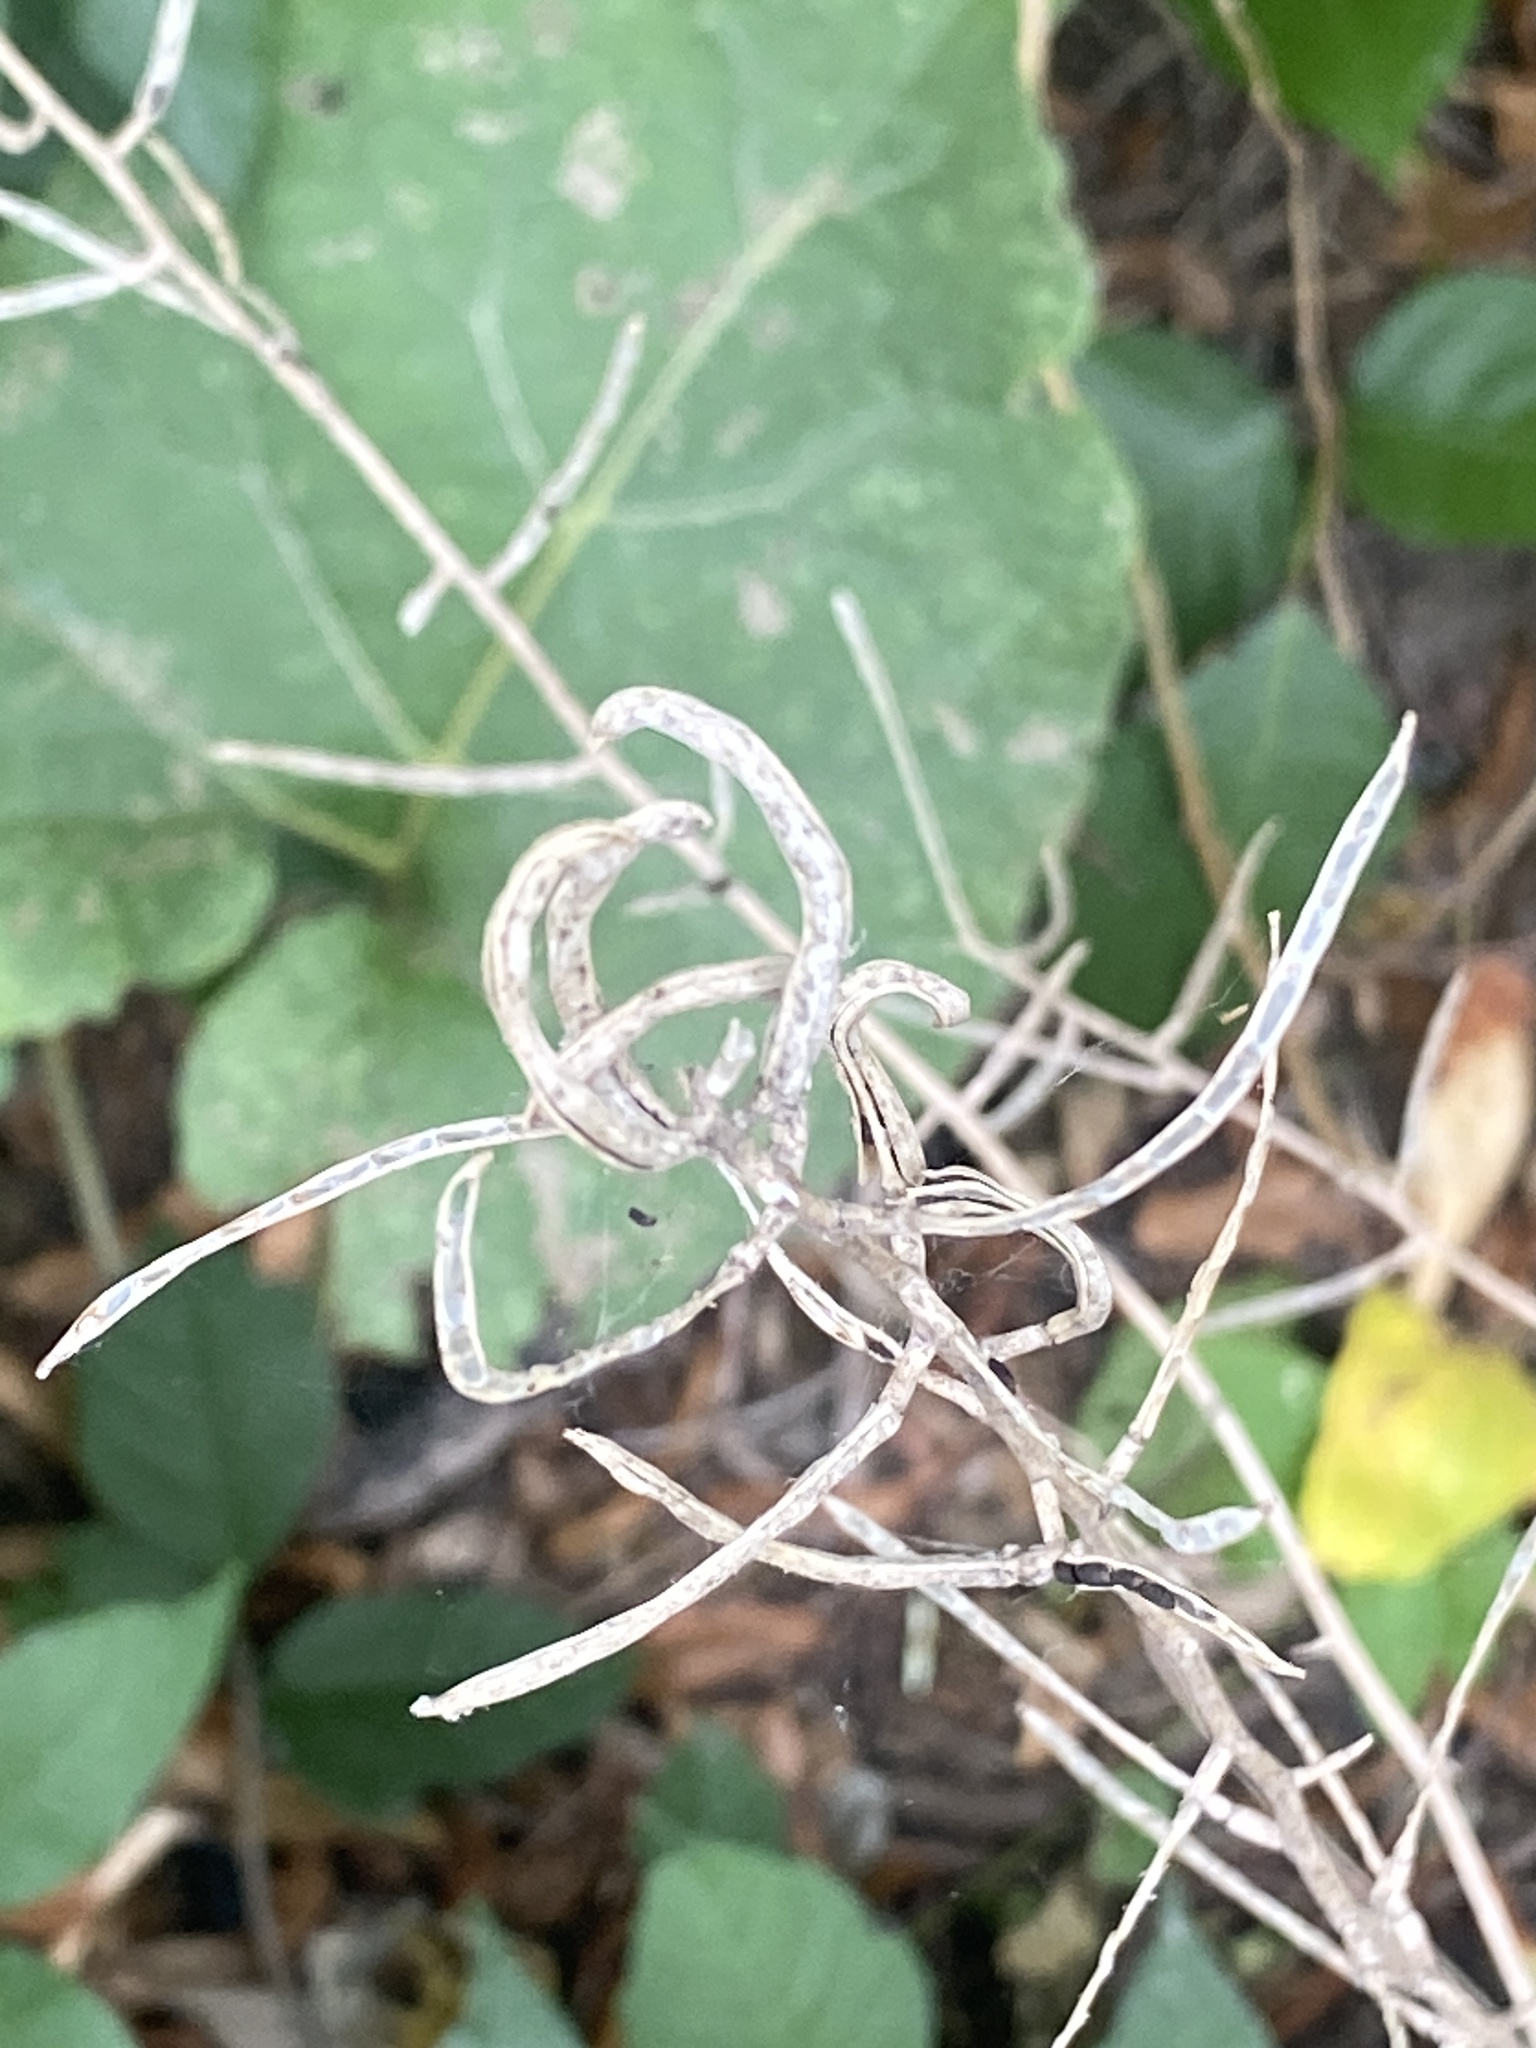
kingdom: Plantae
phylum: Tracheophyta
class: Magnoliopsida
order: Brassicales
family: Brassicaceae
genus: Alliaria
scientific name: Alliaria petiolata
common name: Garlic mustard
